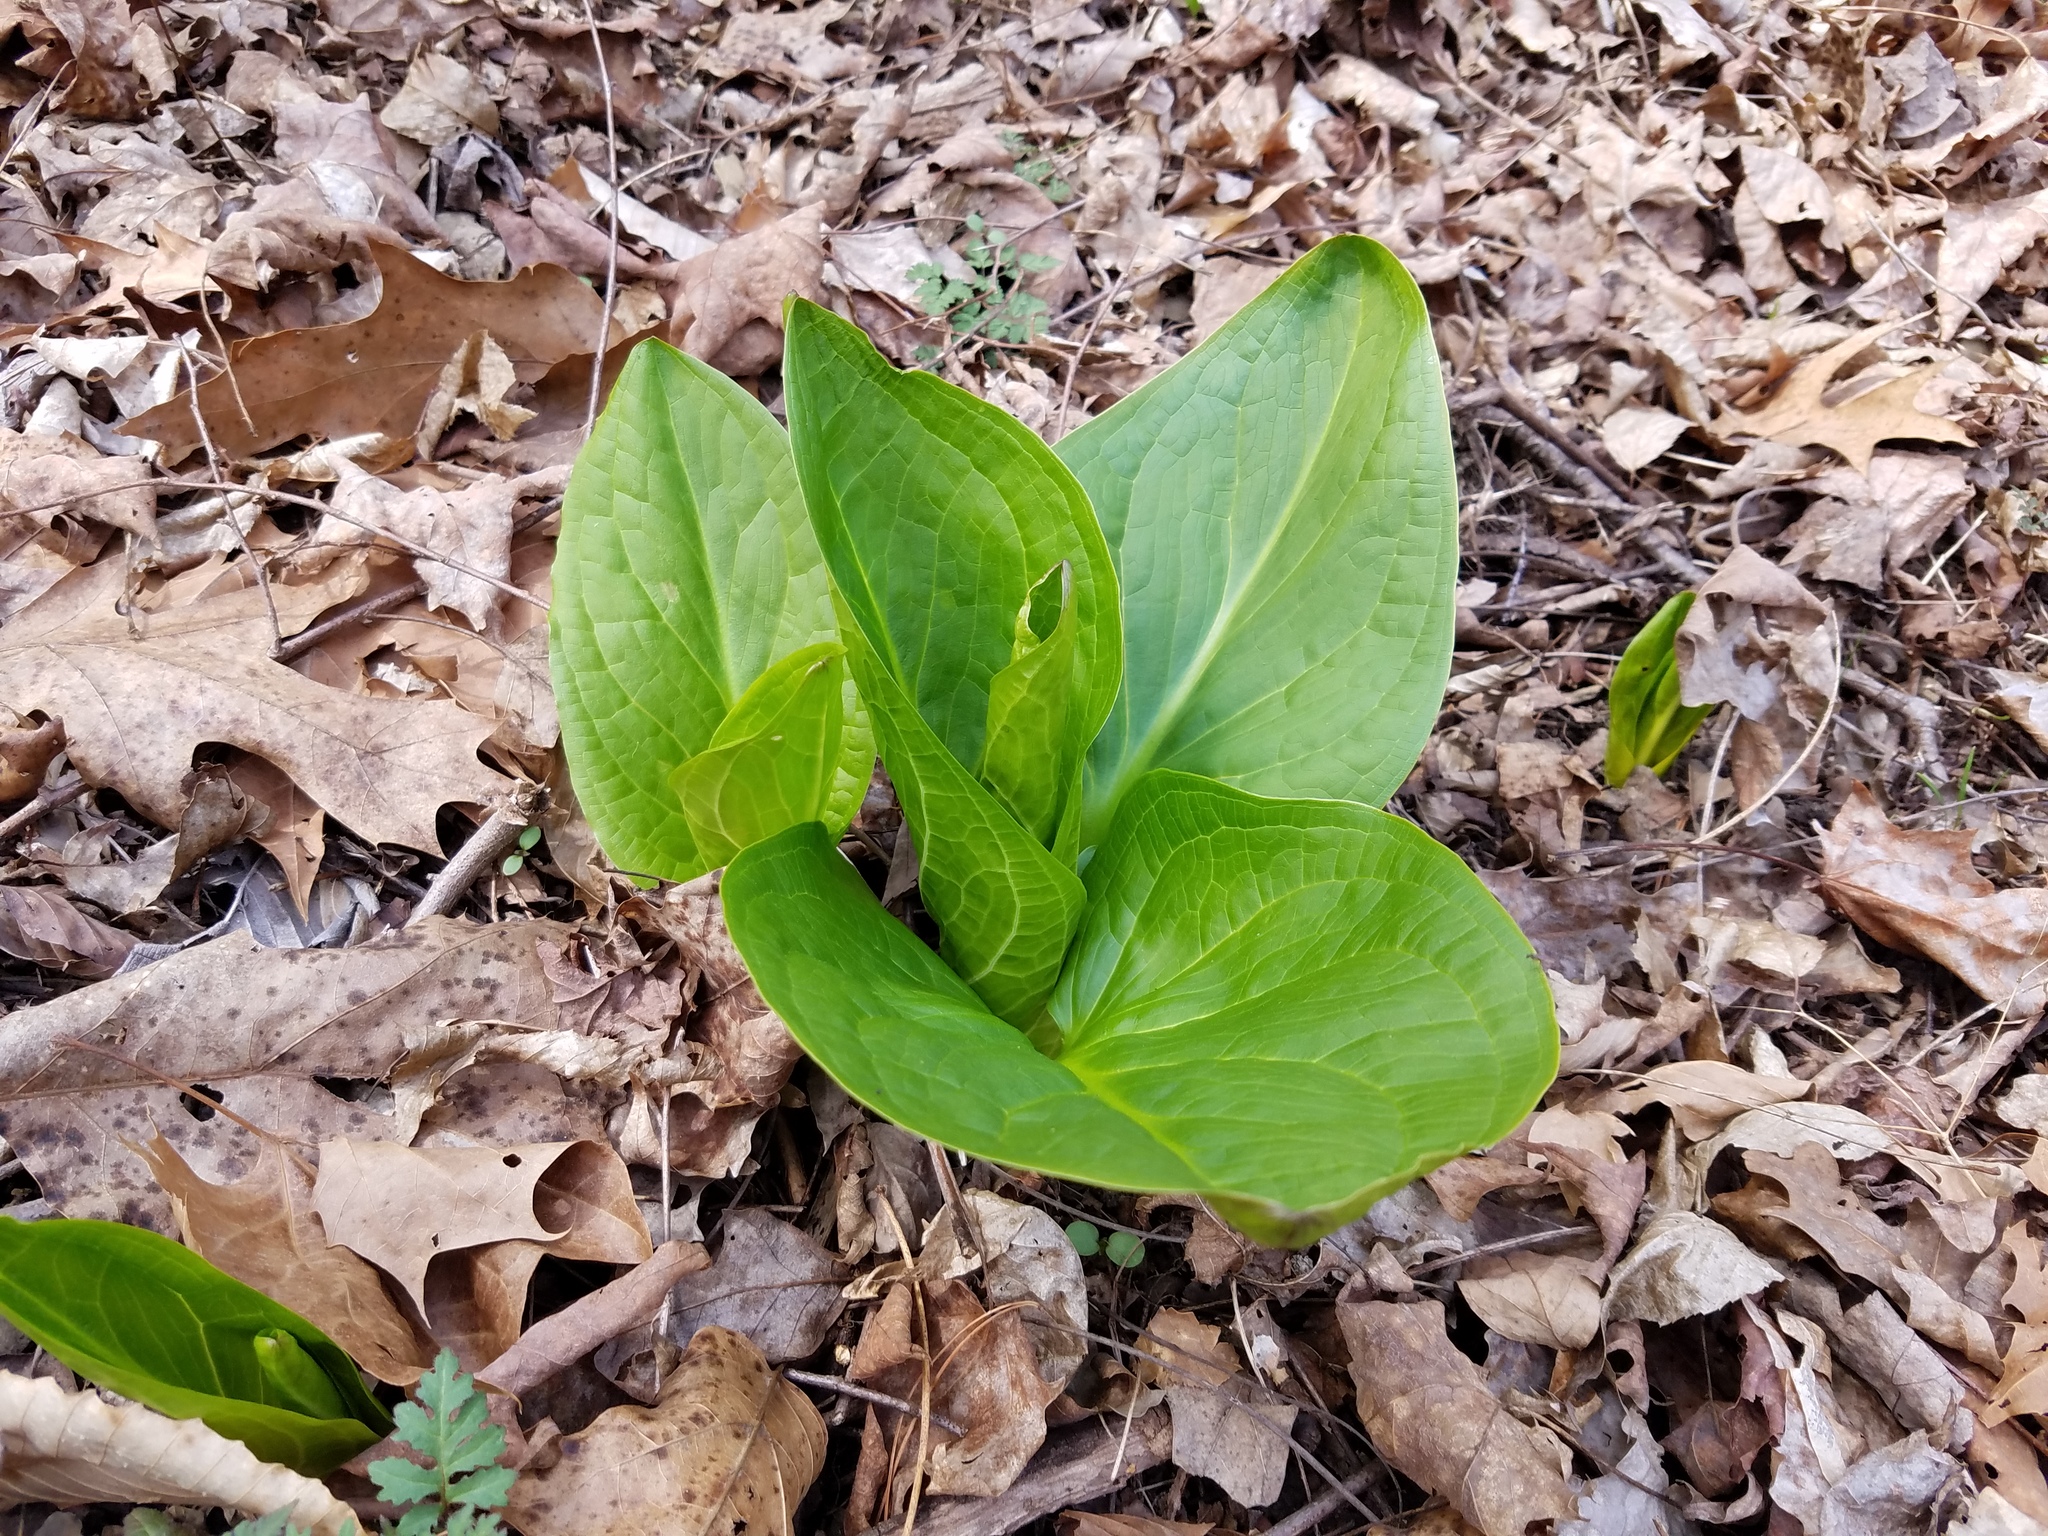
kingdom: Plantae
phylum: Tracheophyta
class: Liliopsida
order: Alismatales
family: Araceae
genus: Symplocarpus
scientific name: Symplocarpus foetidus
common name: Eastern skunk cabbage
